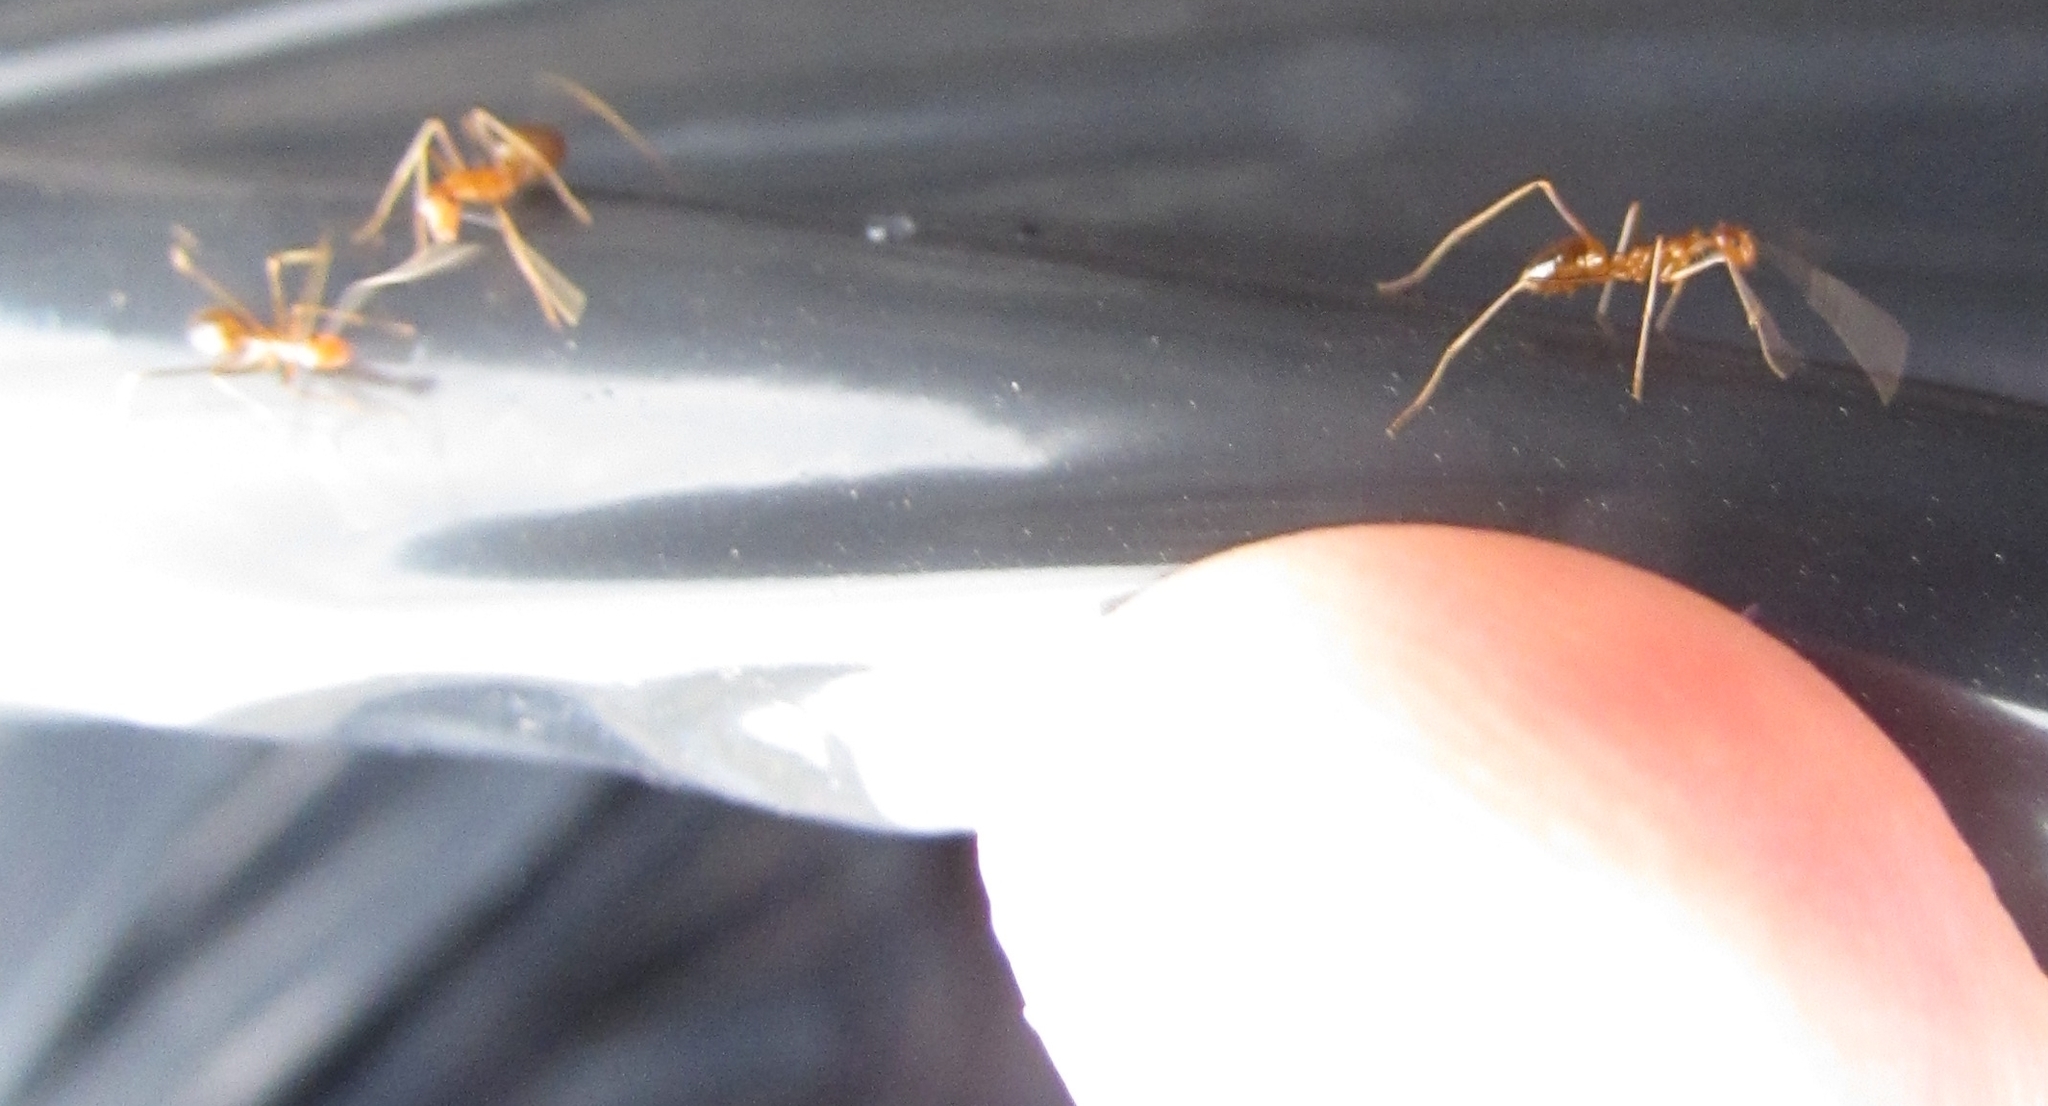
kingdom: Animalia
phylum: Arthropoda
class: Insecta
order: Hymenoptera
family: Formicidae
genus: Anoplolepis
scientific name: Anoplolepis gracilipes
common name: Ant
